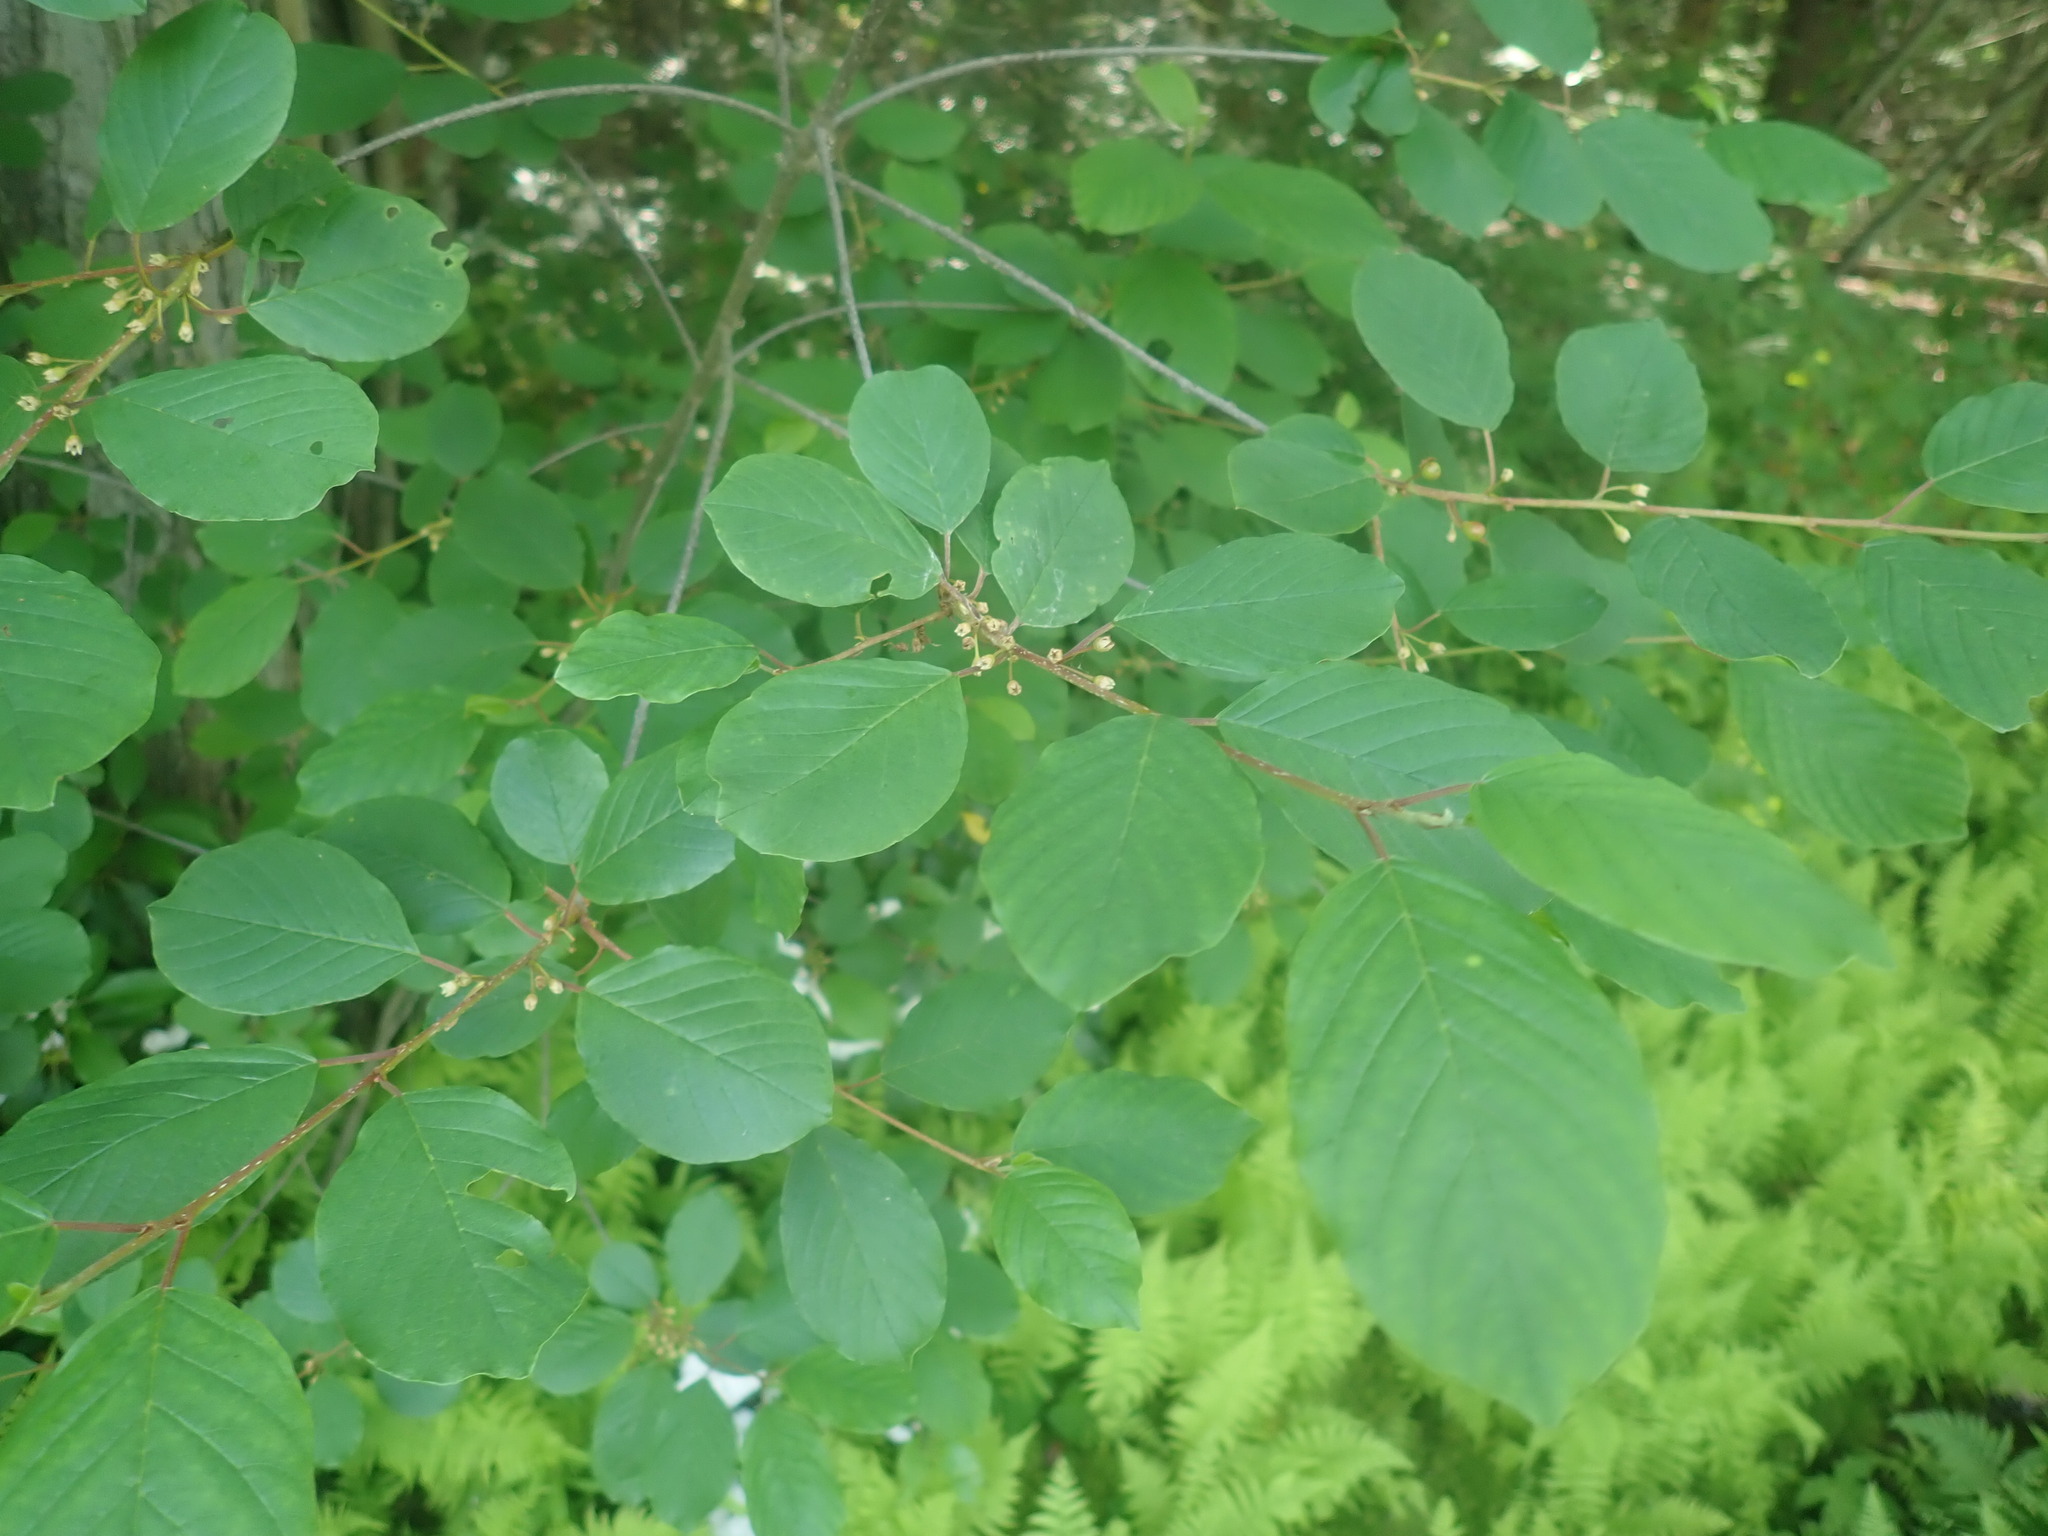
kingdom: Plantae
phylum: Tracheophyta
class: Magnoliopsida
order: Rosales
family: Rhamnaceae
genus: Frangula
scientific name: Frangula alnus
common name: Alder buckthorn
